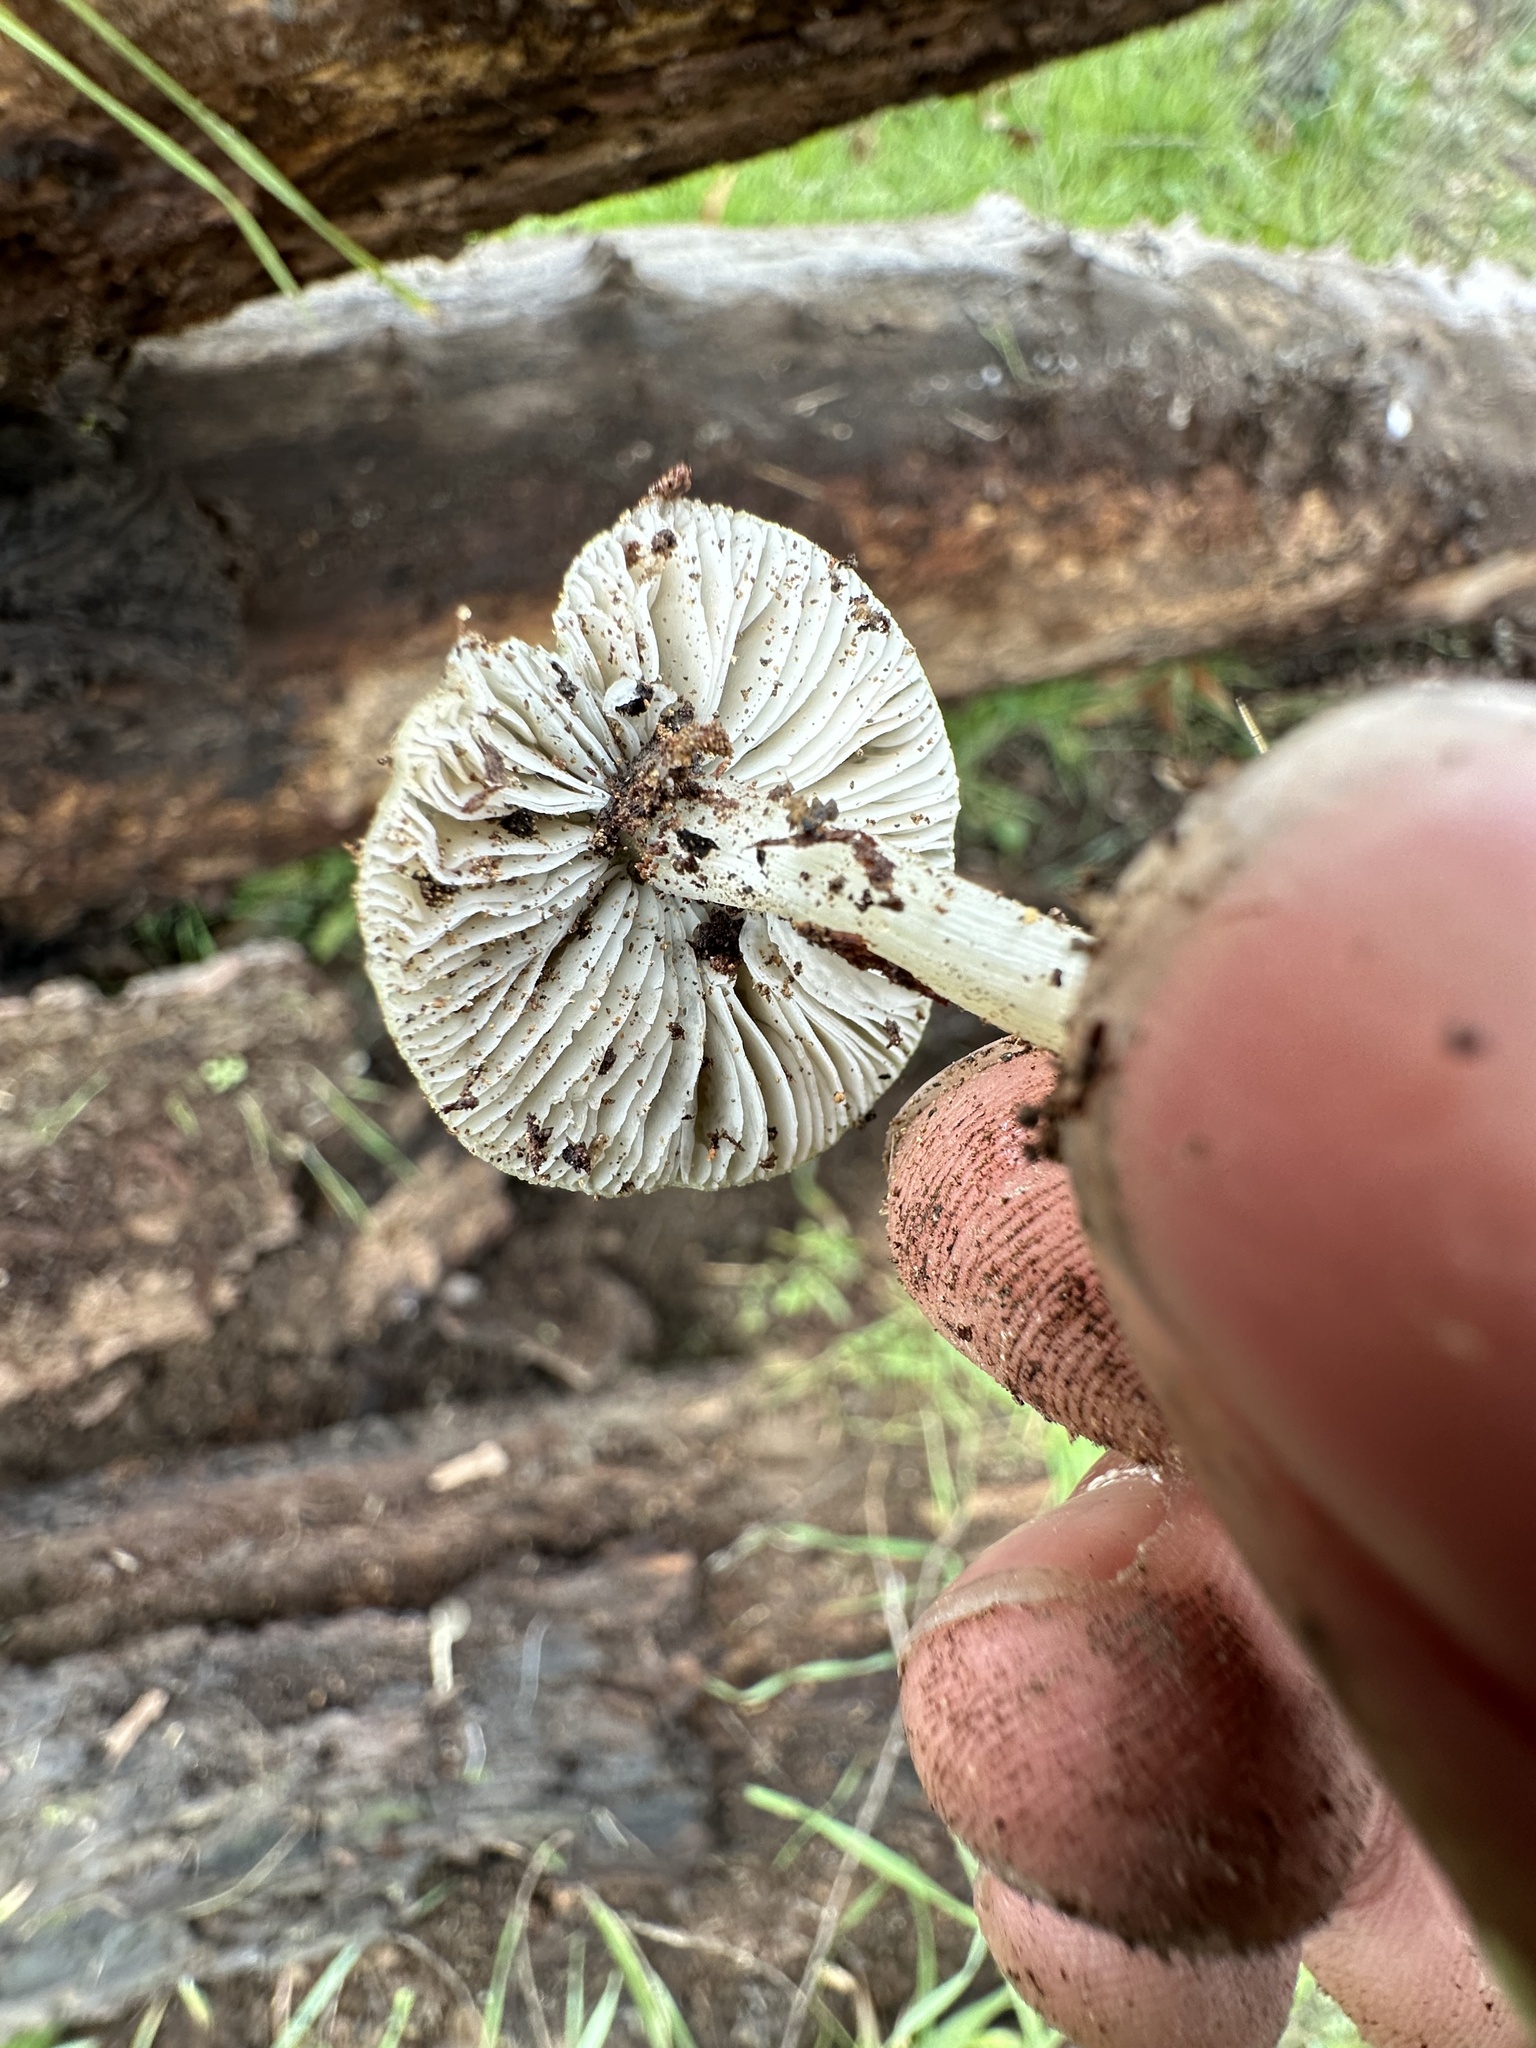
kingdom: Fungi
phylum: Basidiomycota
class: Agaricomycetes
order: Agaricales
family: Amanitaceae
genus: Amanita
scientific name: Amanita protecta
